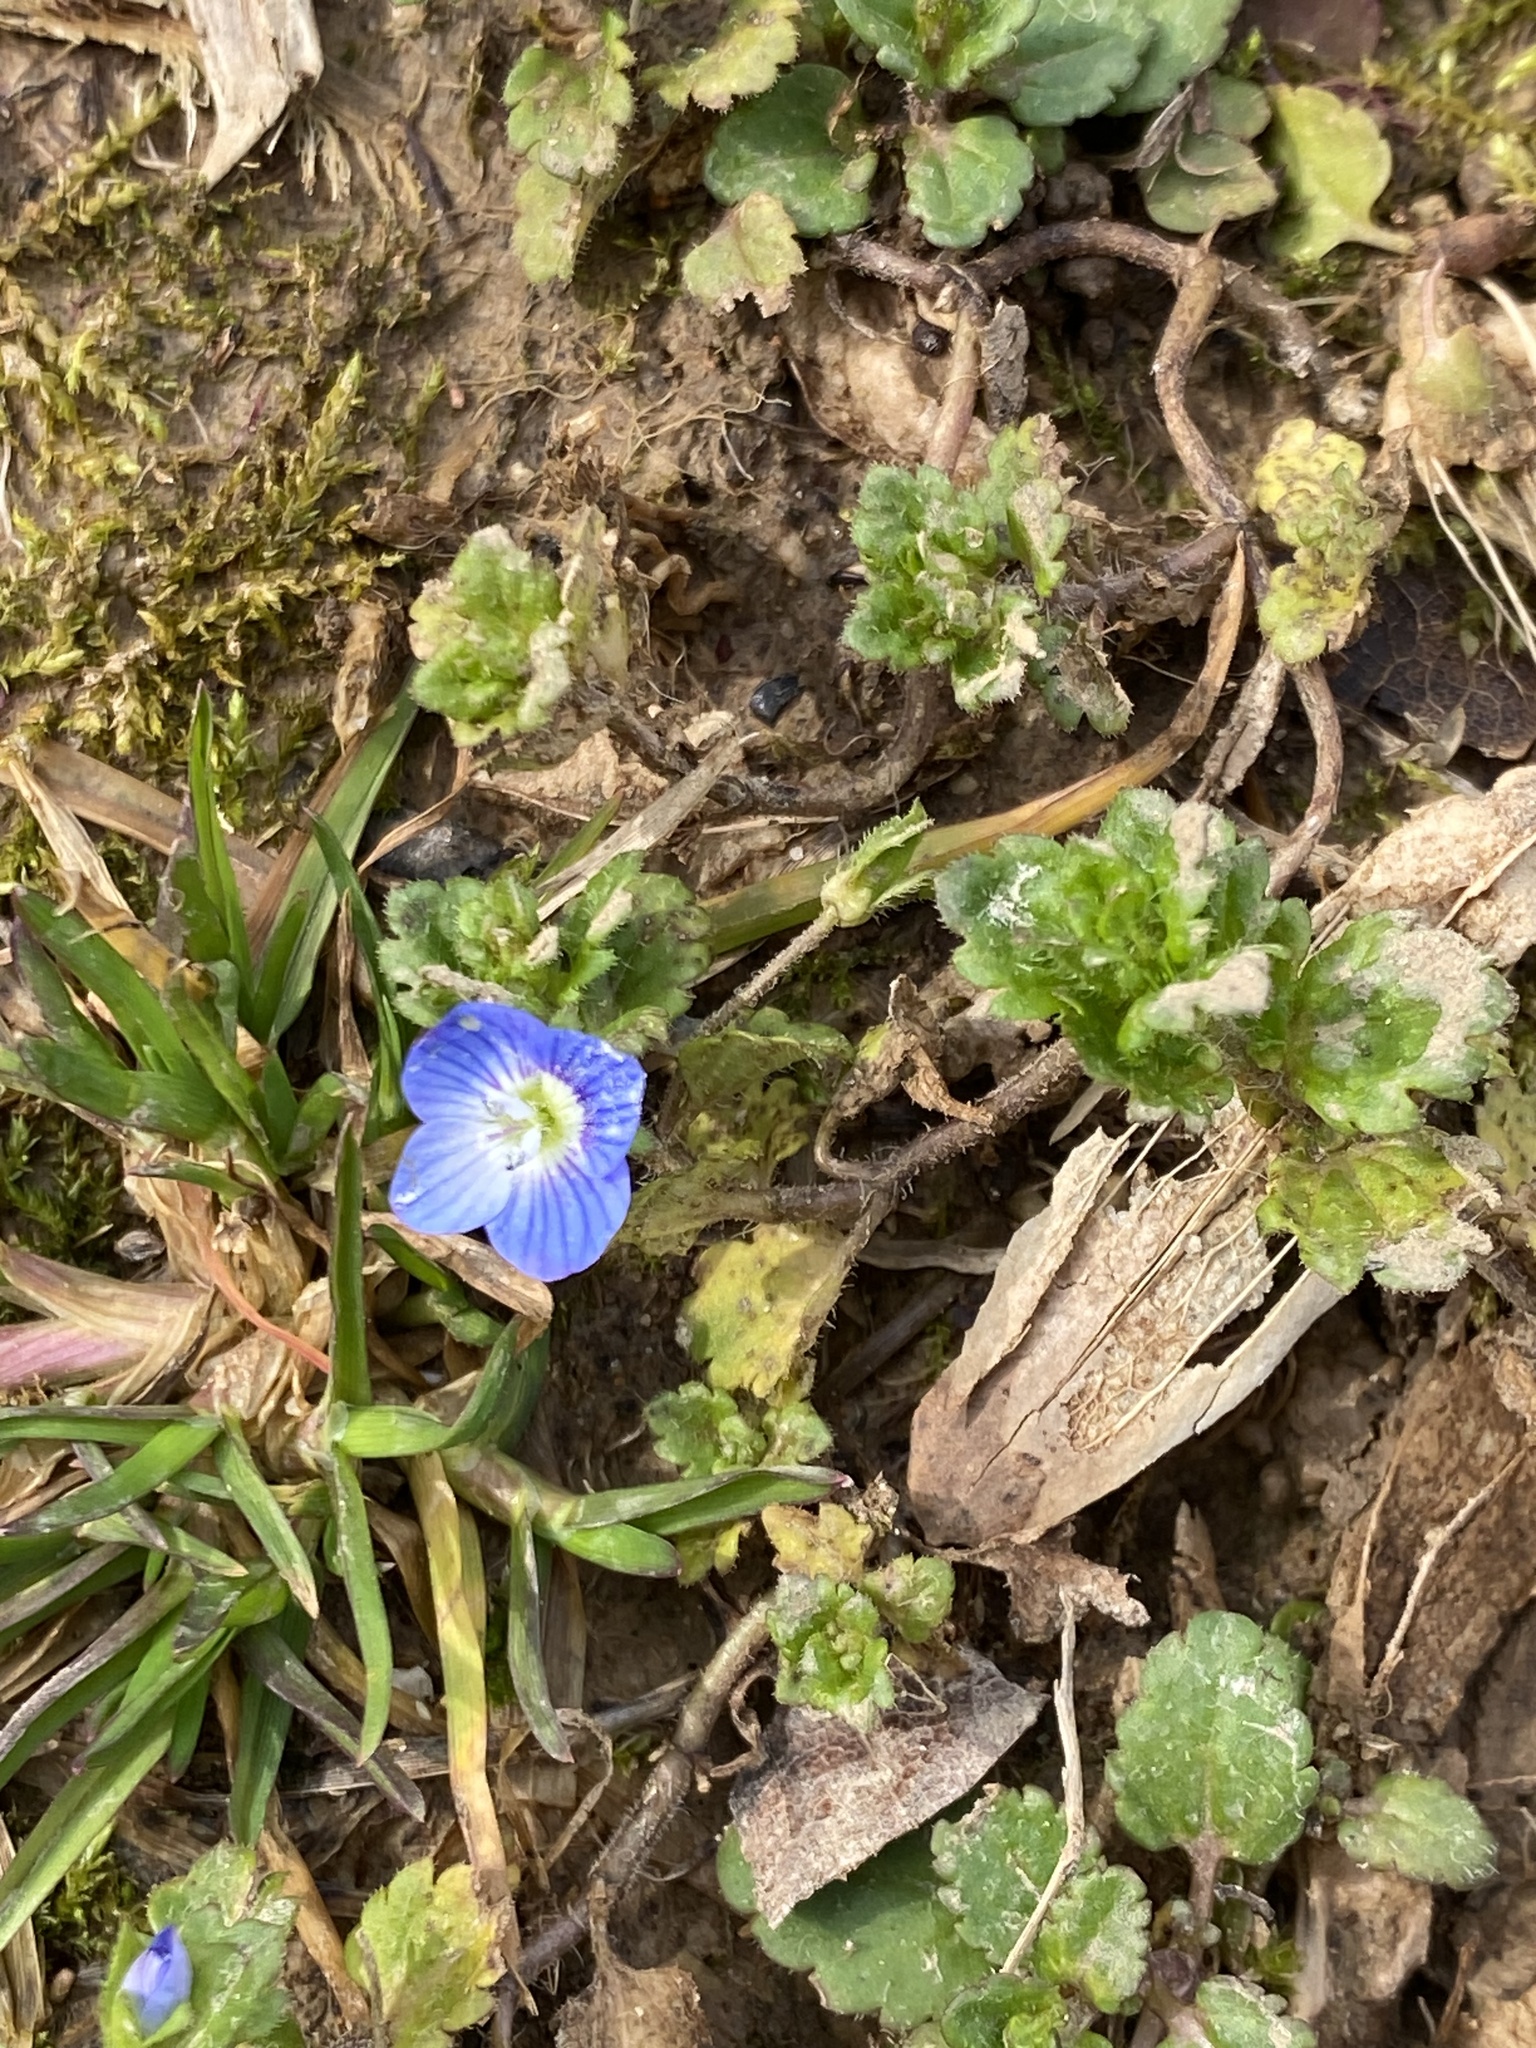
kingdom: Plantae
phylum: Tracheophyta
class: Magnoliopsida
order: Lamiales
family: Plantaginaceae
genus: Veronica
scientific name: Veronica persica
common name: Common field-speedwell
